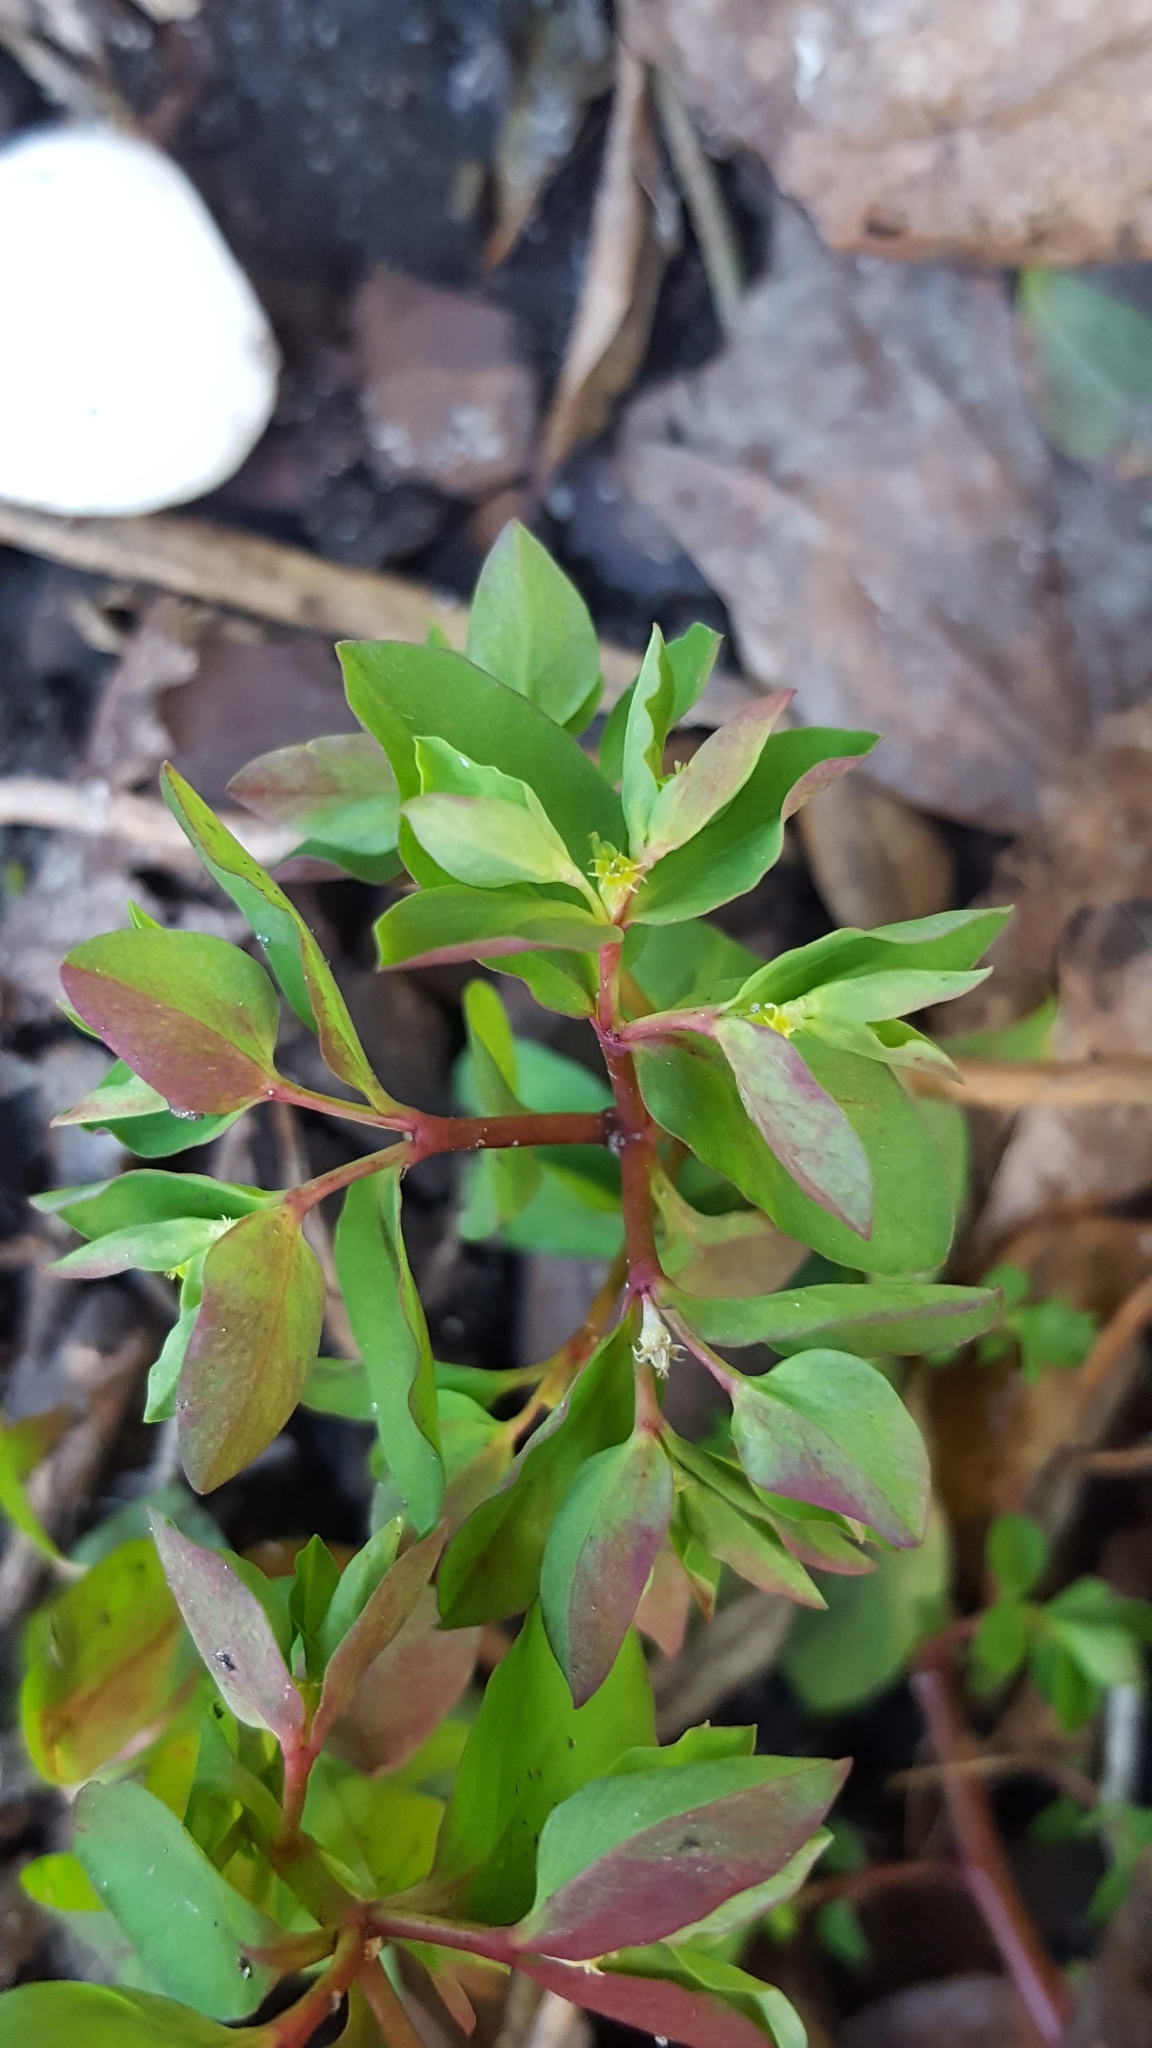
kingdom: Plantae
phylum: Tracheophyta
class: Magnoliopsida
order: Malpighiales
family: Euphorbiaceae
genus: Euphorbia
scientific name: Euphorbia peplus
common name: Petty spurge
